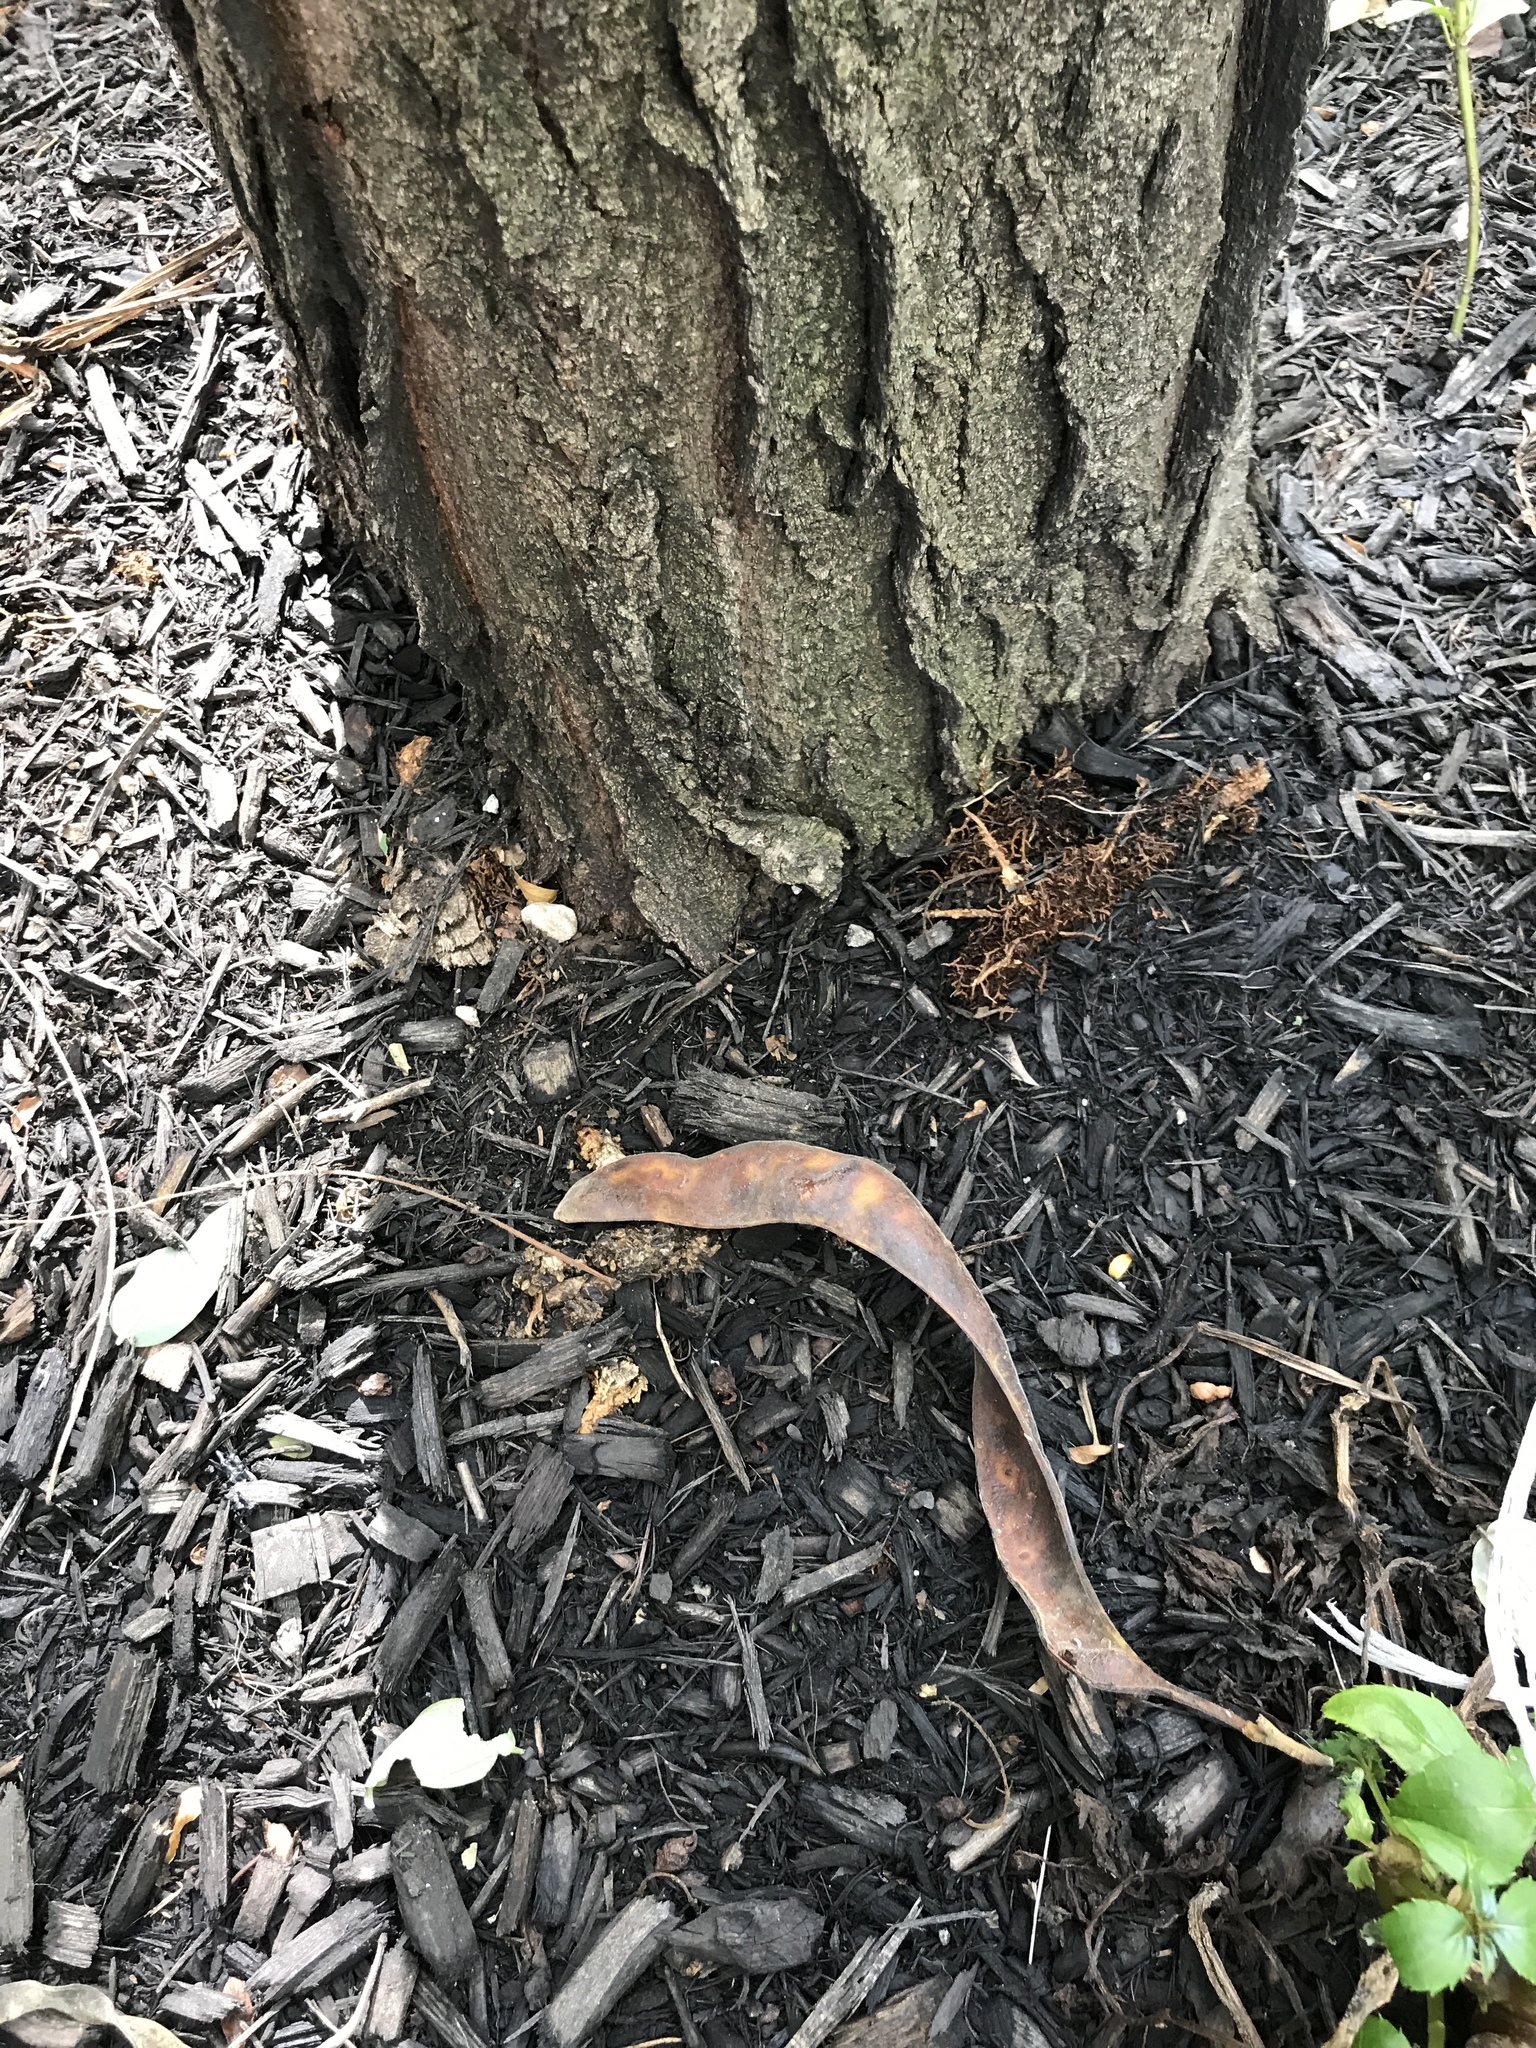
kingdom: Plantae
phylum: Tracheophyta
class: Magnoliopsida
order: Fabales
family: Fabaceae
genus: Gleditsia
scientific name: Gleditsia triacanthos
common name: Common honeylocust
